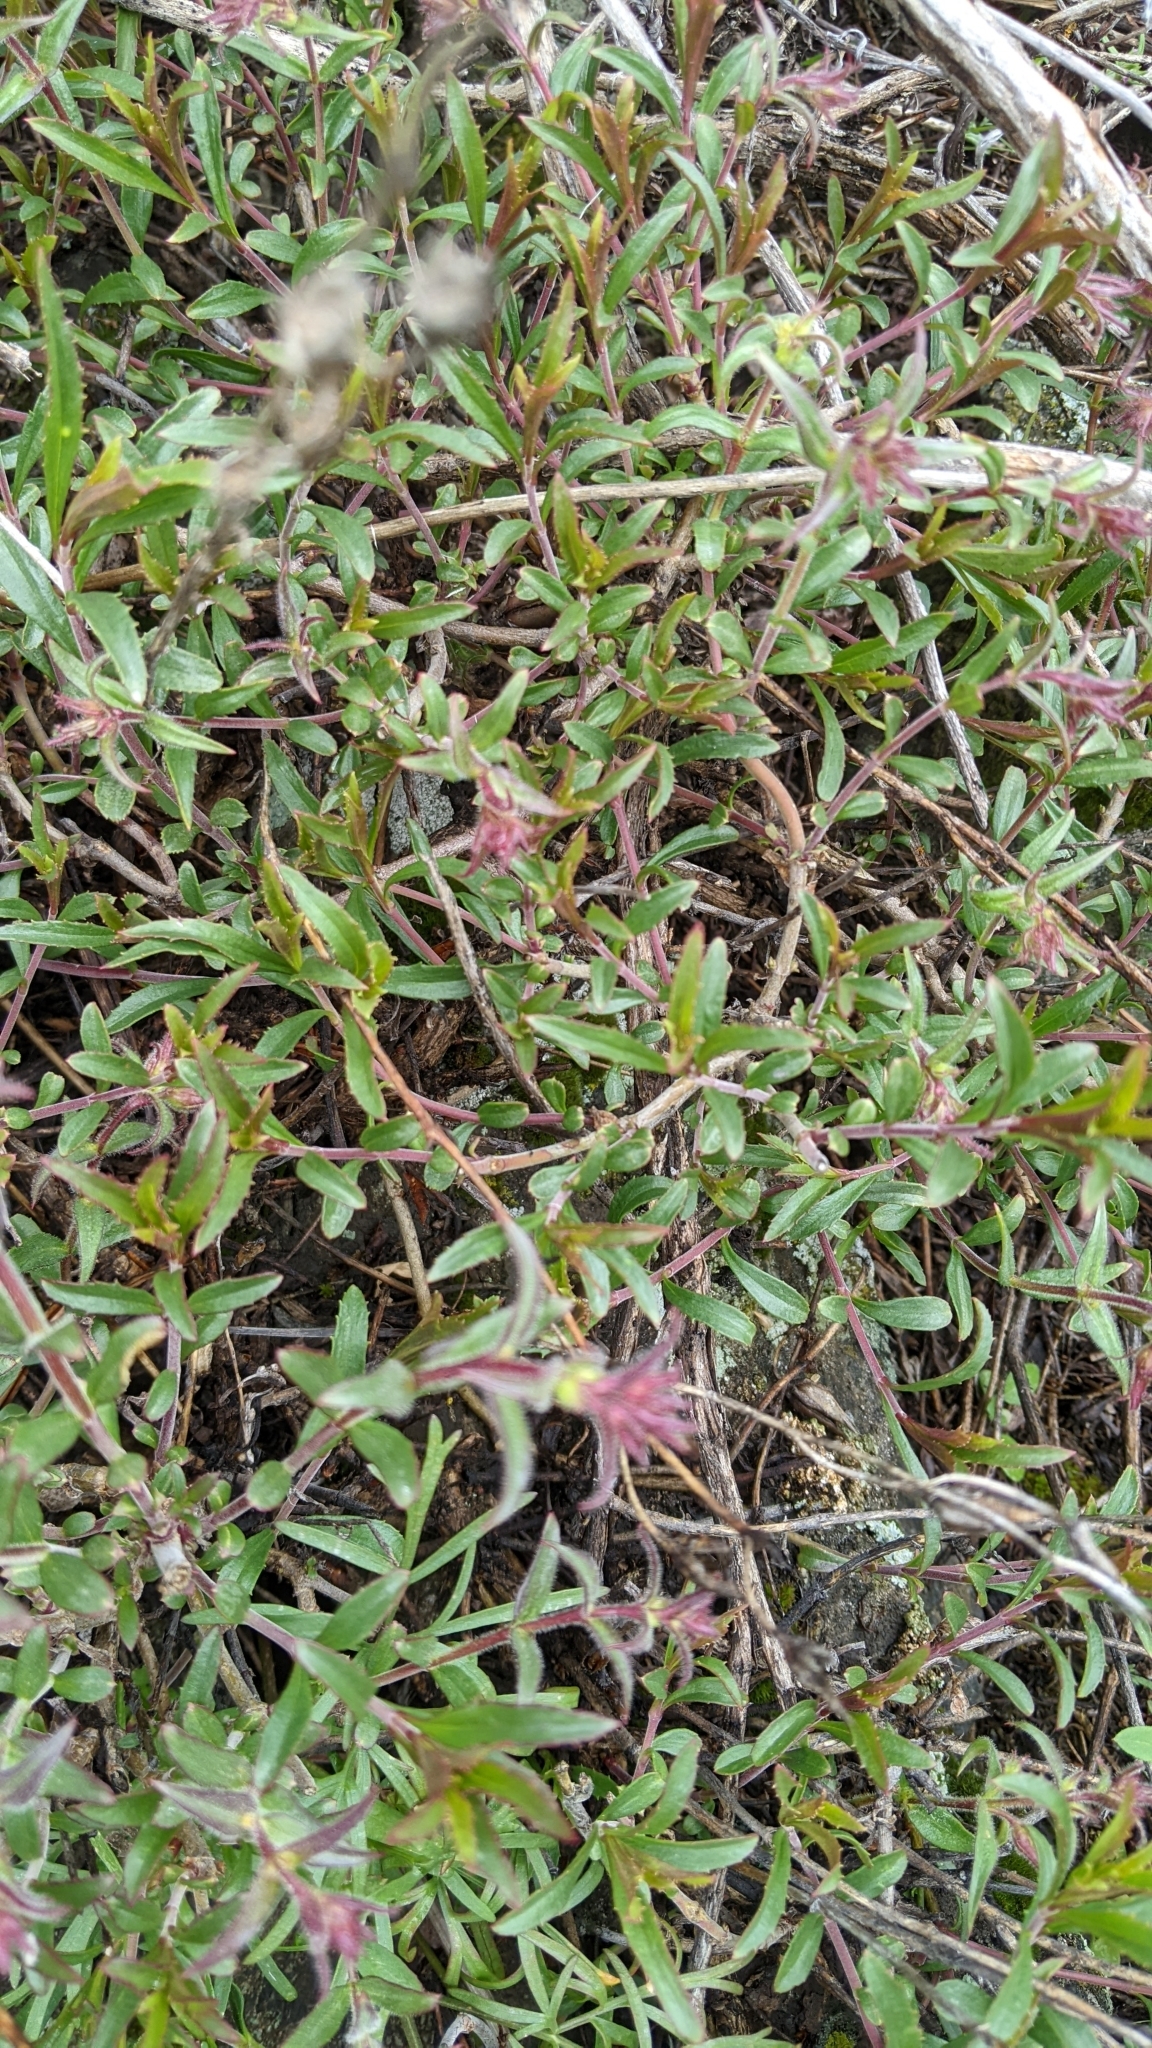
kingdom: Plantae
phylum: Tracheophyta
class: Magnoliopsida
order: Lamiales
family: Plantaginaceae
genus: Penstemon
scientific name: Penstemon fruticosus
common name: Bush penstemon
